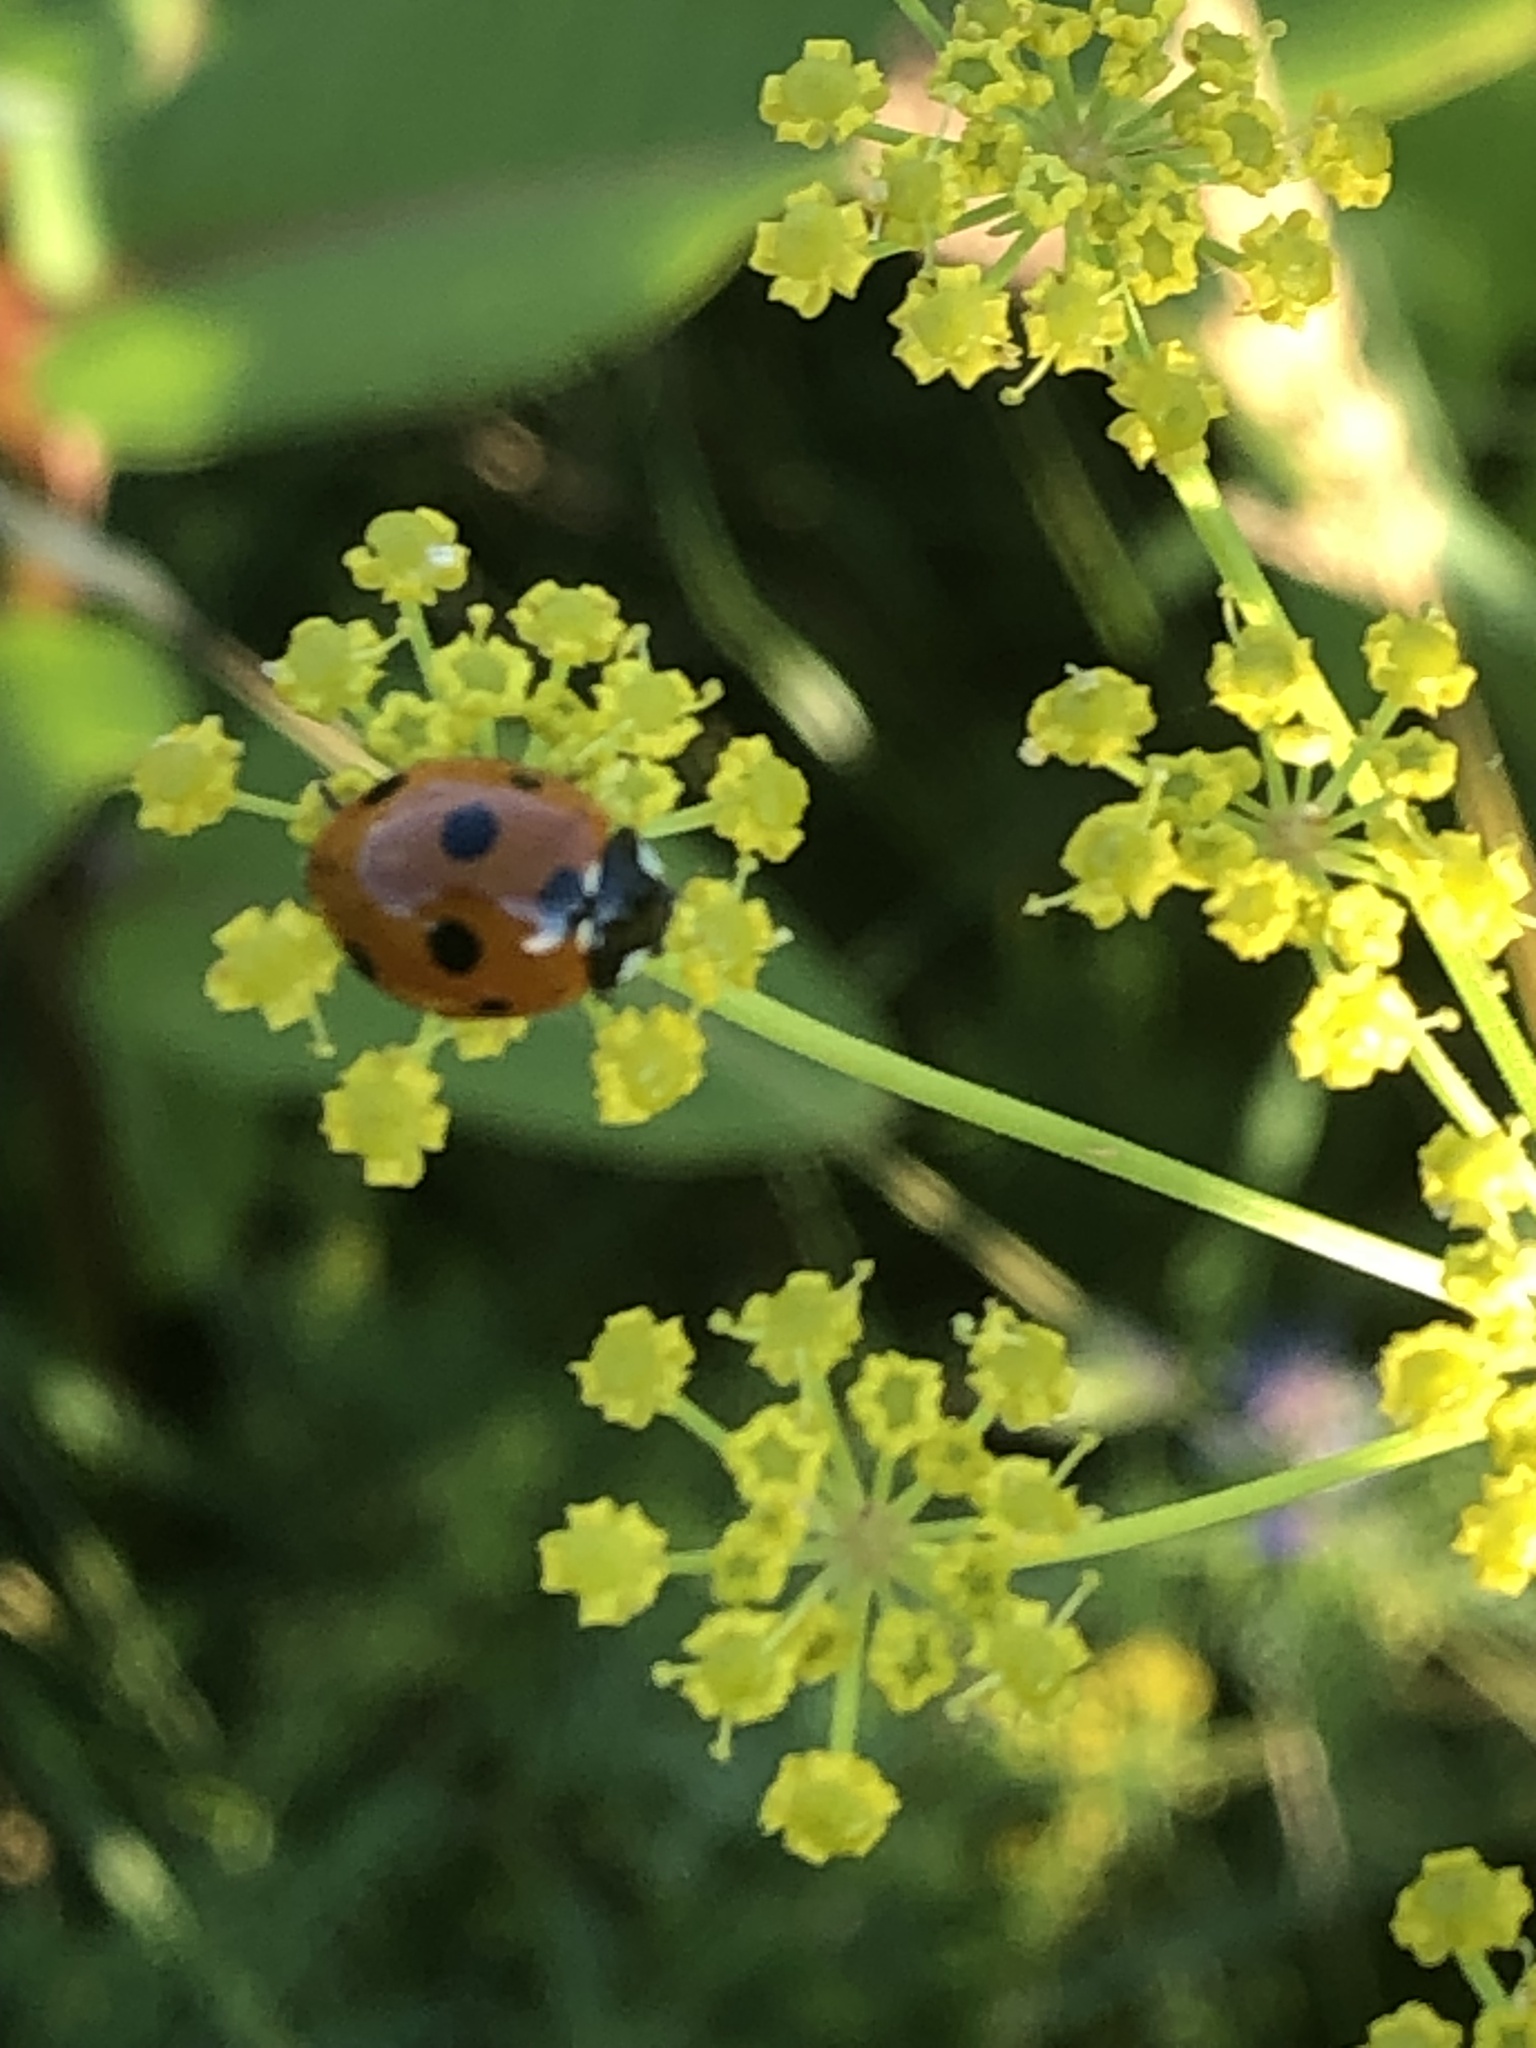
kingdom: Animalia
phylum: Arthropoda
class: Insecta
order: Coleoptera
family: Coccinellidae
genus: Coccinella
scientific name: Coccinella septempunctata
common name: Sevenspotted lady beetle
